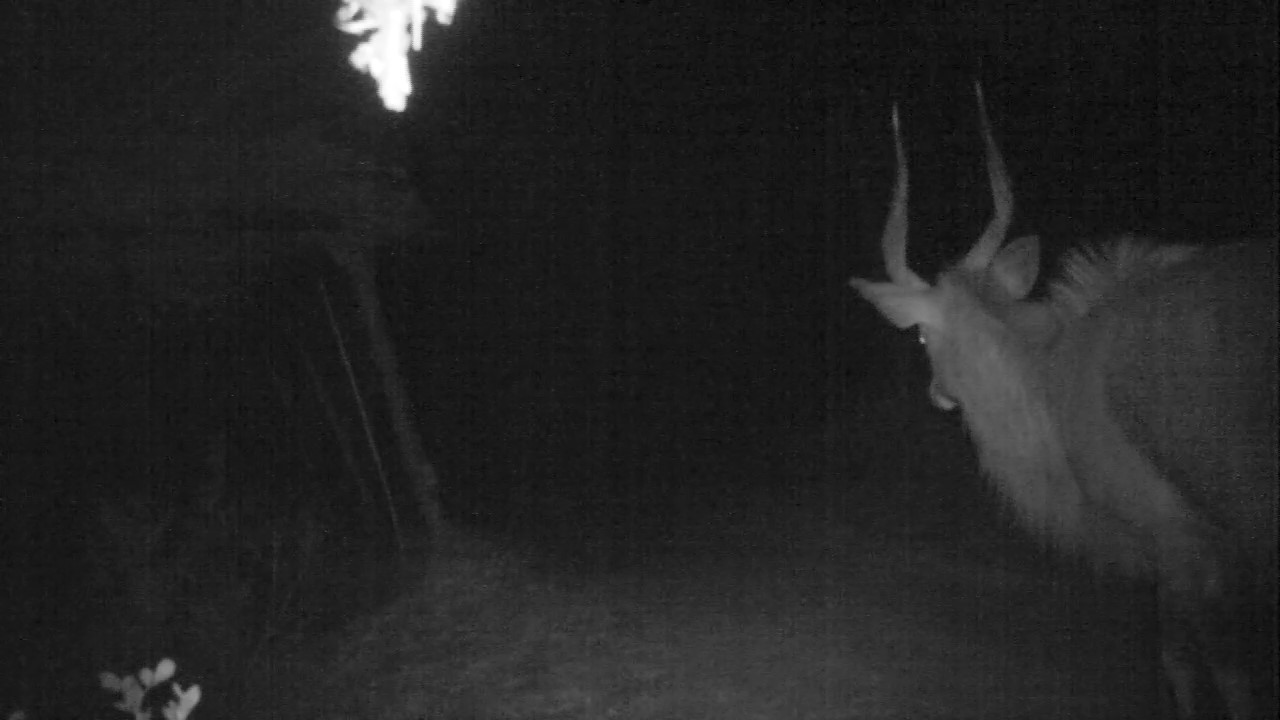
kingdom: Animalia
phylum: Chordata
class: Mammalia
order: Artiodactyla
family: Bovidae
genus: Tragelaphus
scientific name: Tragelaphus angasii
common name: Nyala
